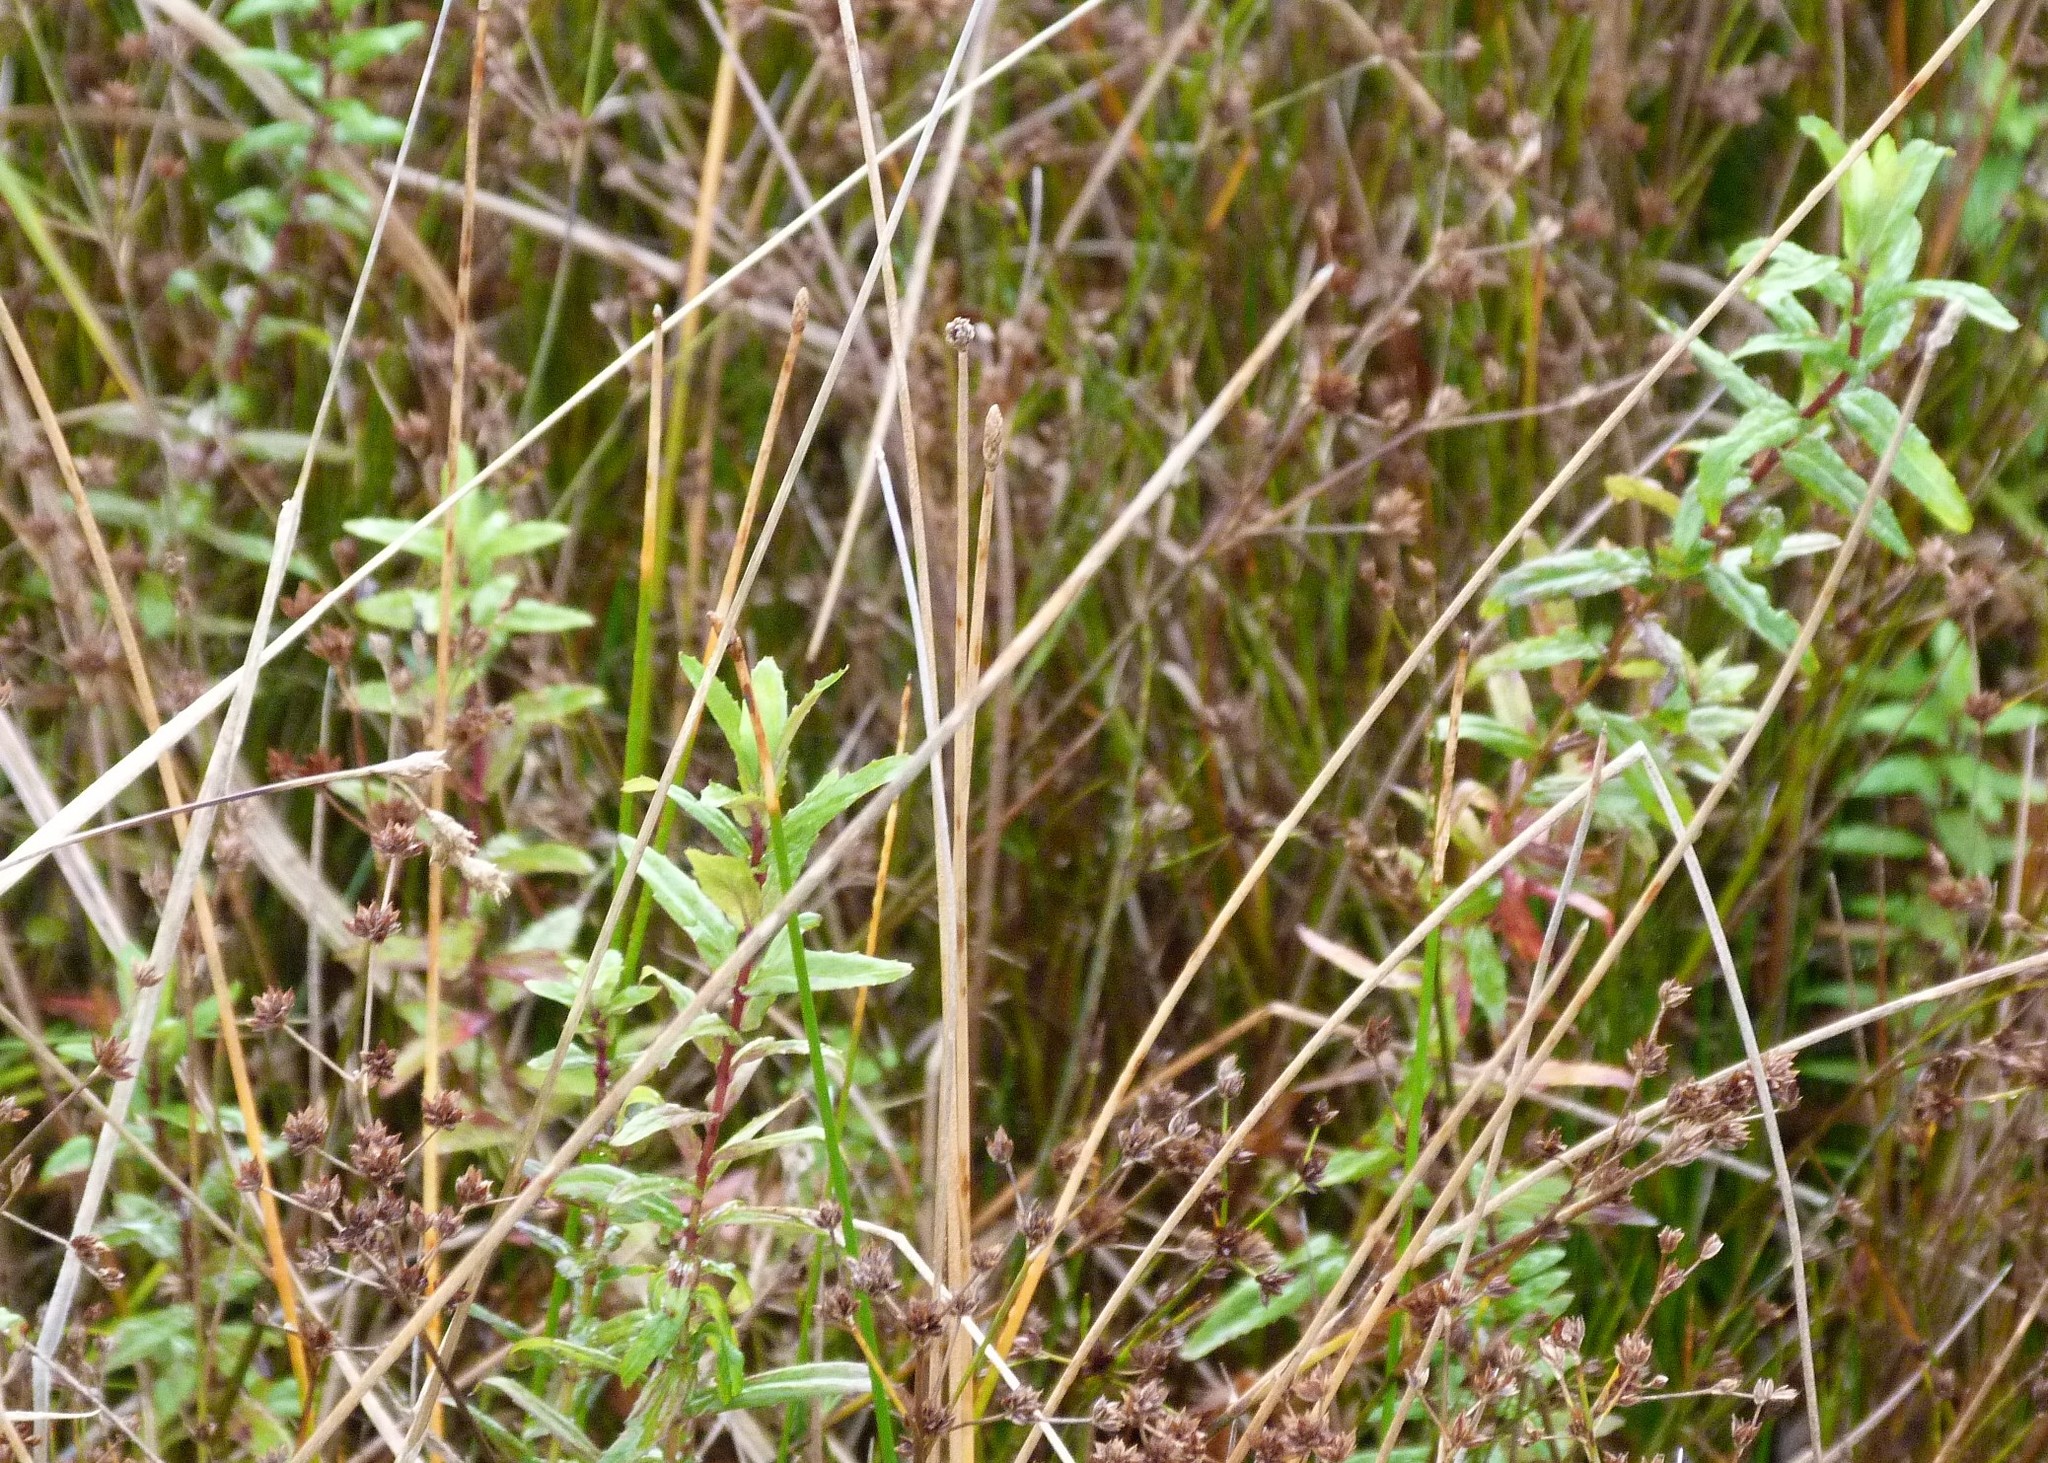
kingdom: Plantae
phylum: Tracheophyta
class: Magnoliopsida
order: Myrtales
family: Onagraceae
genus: Epilobium
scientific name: Epilobium pallidiflorum
